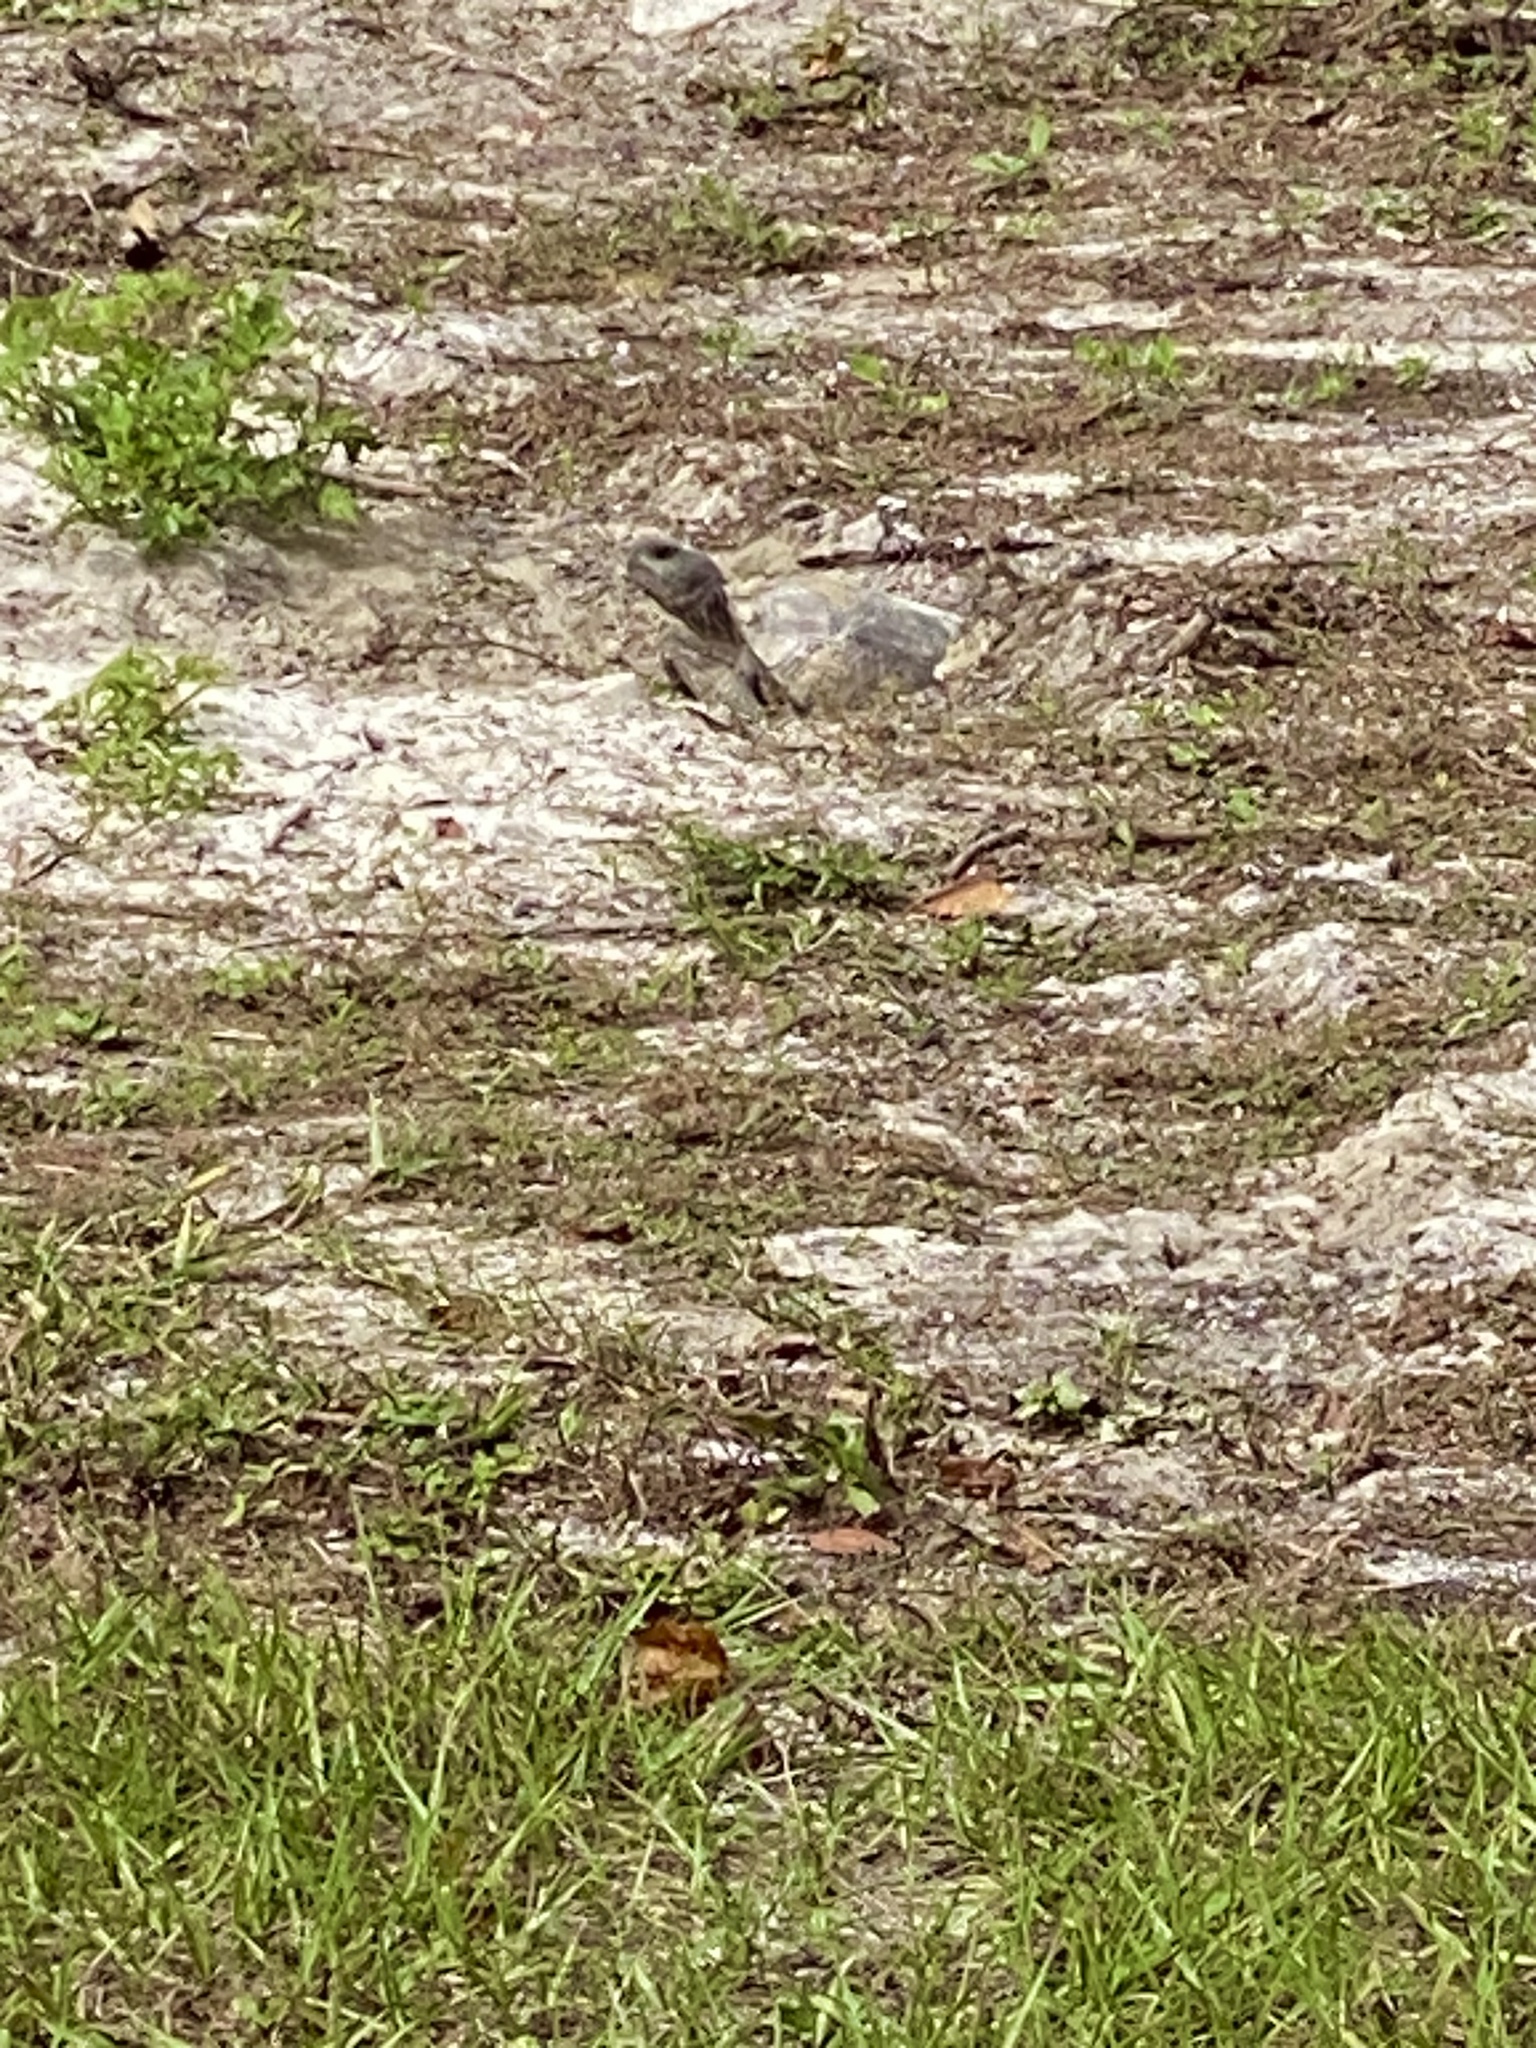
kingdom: Animalia
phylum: Chordata
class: Testudines
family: Testudinidae
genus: Gopherus
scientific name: Gopherus polyphemus
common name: Florida gopher tortoise
